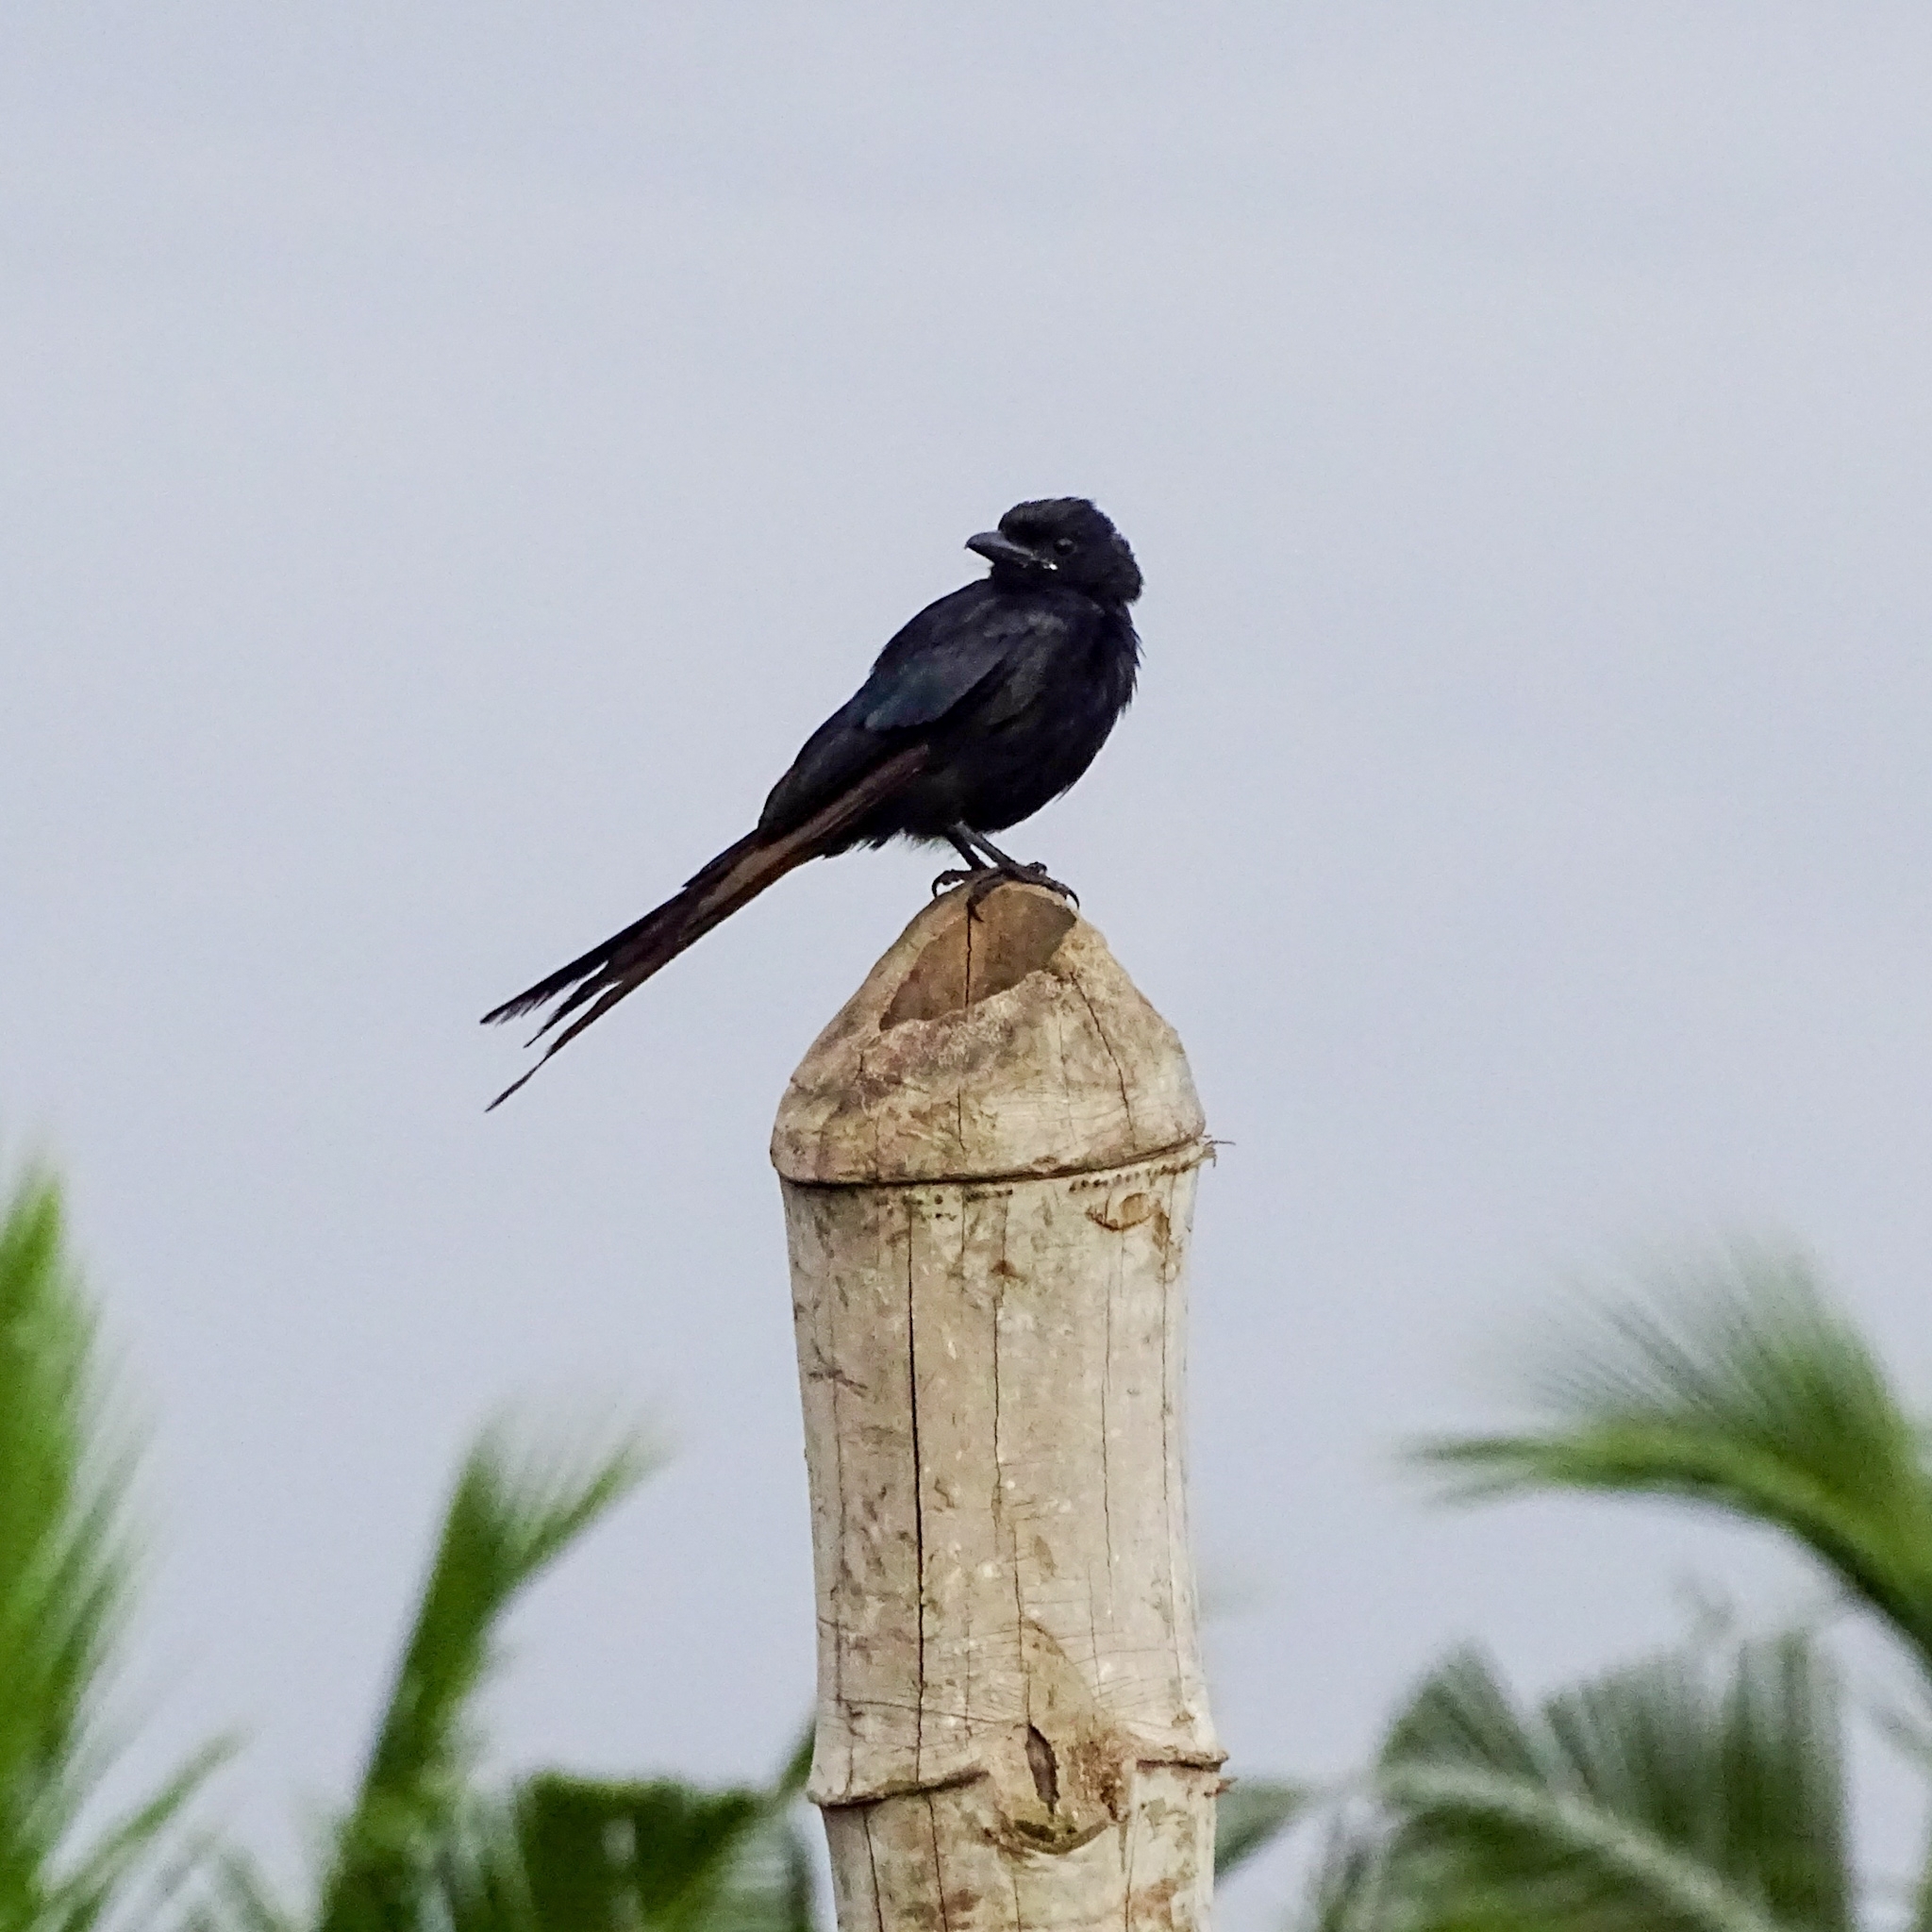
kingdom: Animalia
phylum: Chordata
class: Aves
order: Passeriformes
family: Dicruridae
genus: Dicrurus
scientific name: Dicrurus macrocercus
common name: Black drongo
